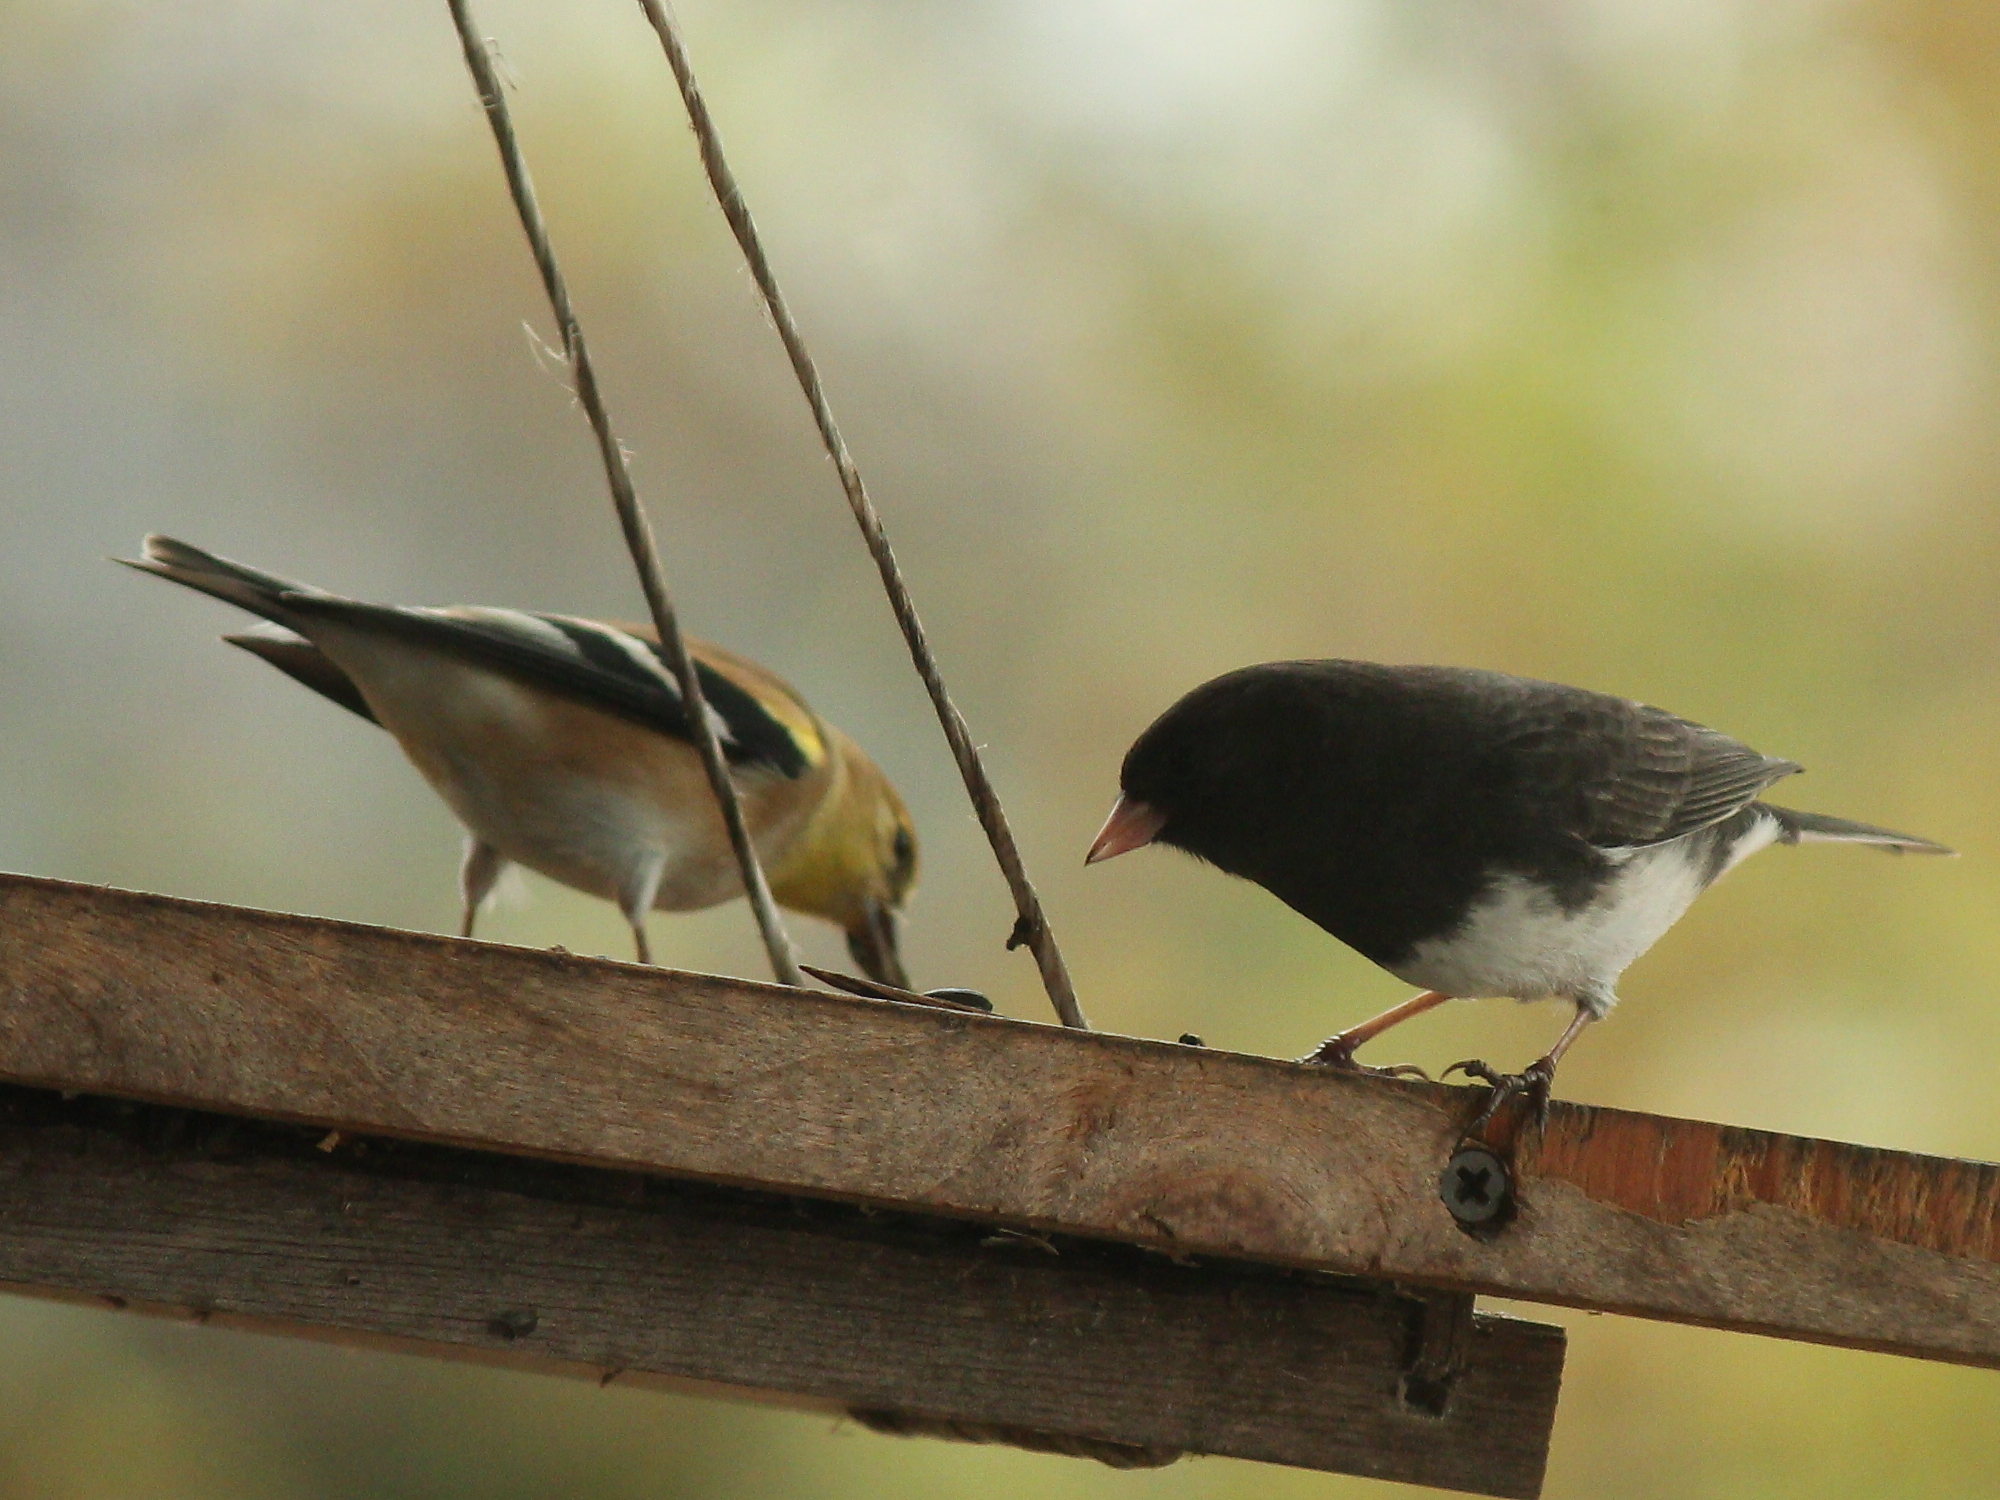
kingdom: Animalia
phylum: Chordata
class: Aves
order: Passeriformes
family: Passerellidae
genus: Junco
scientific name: Junco hyemalis
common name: Dark-eyed junco
